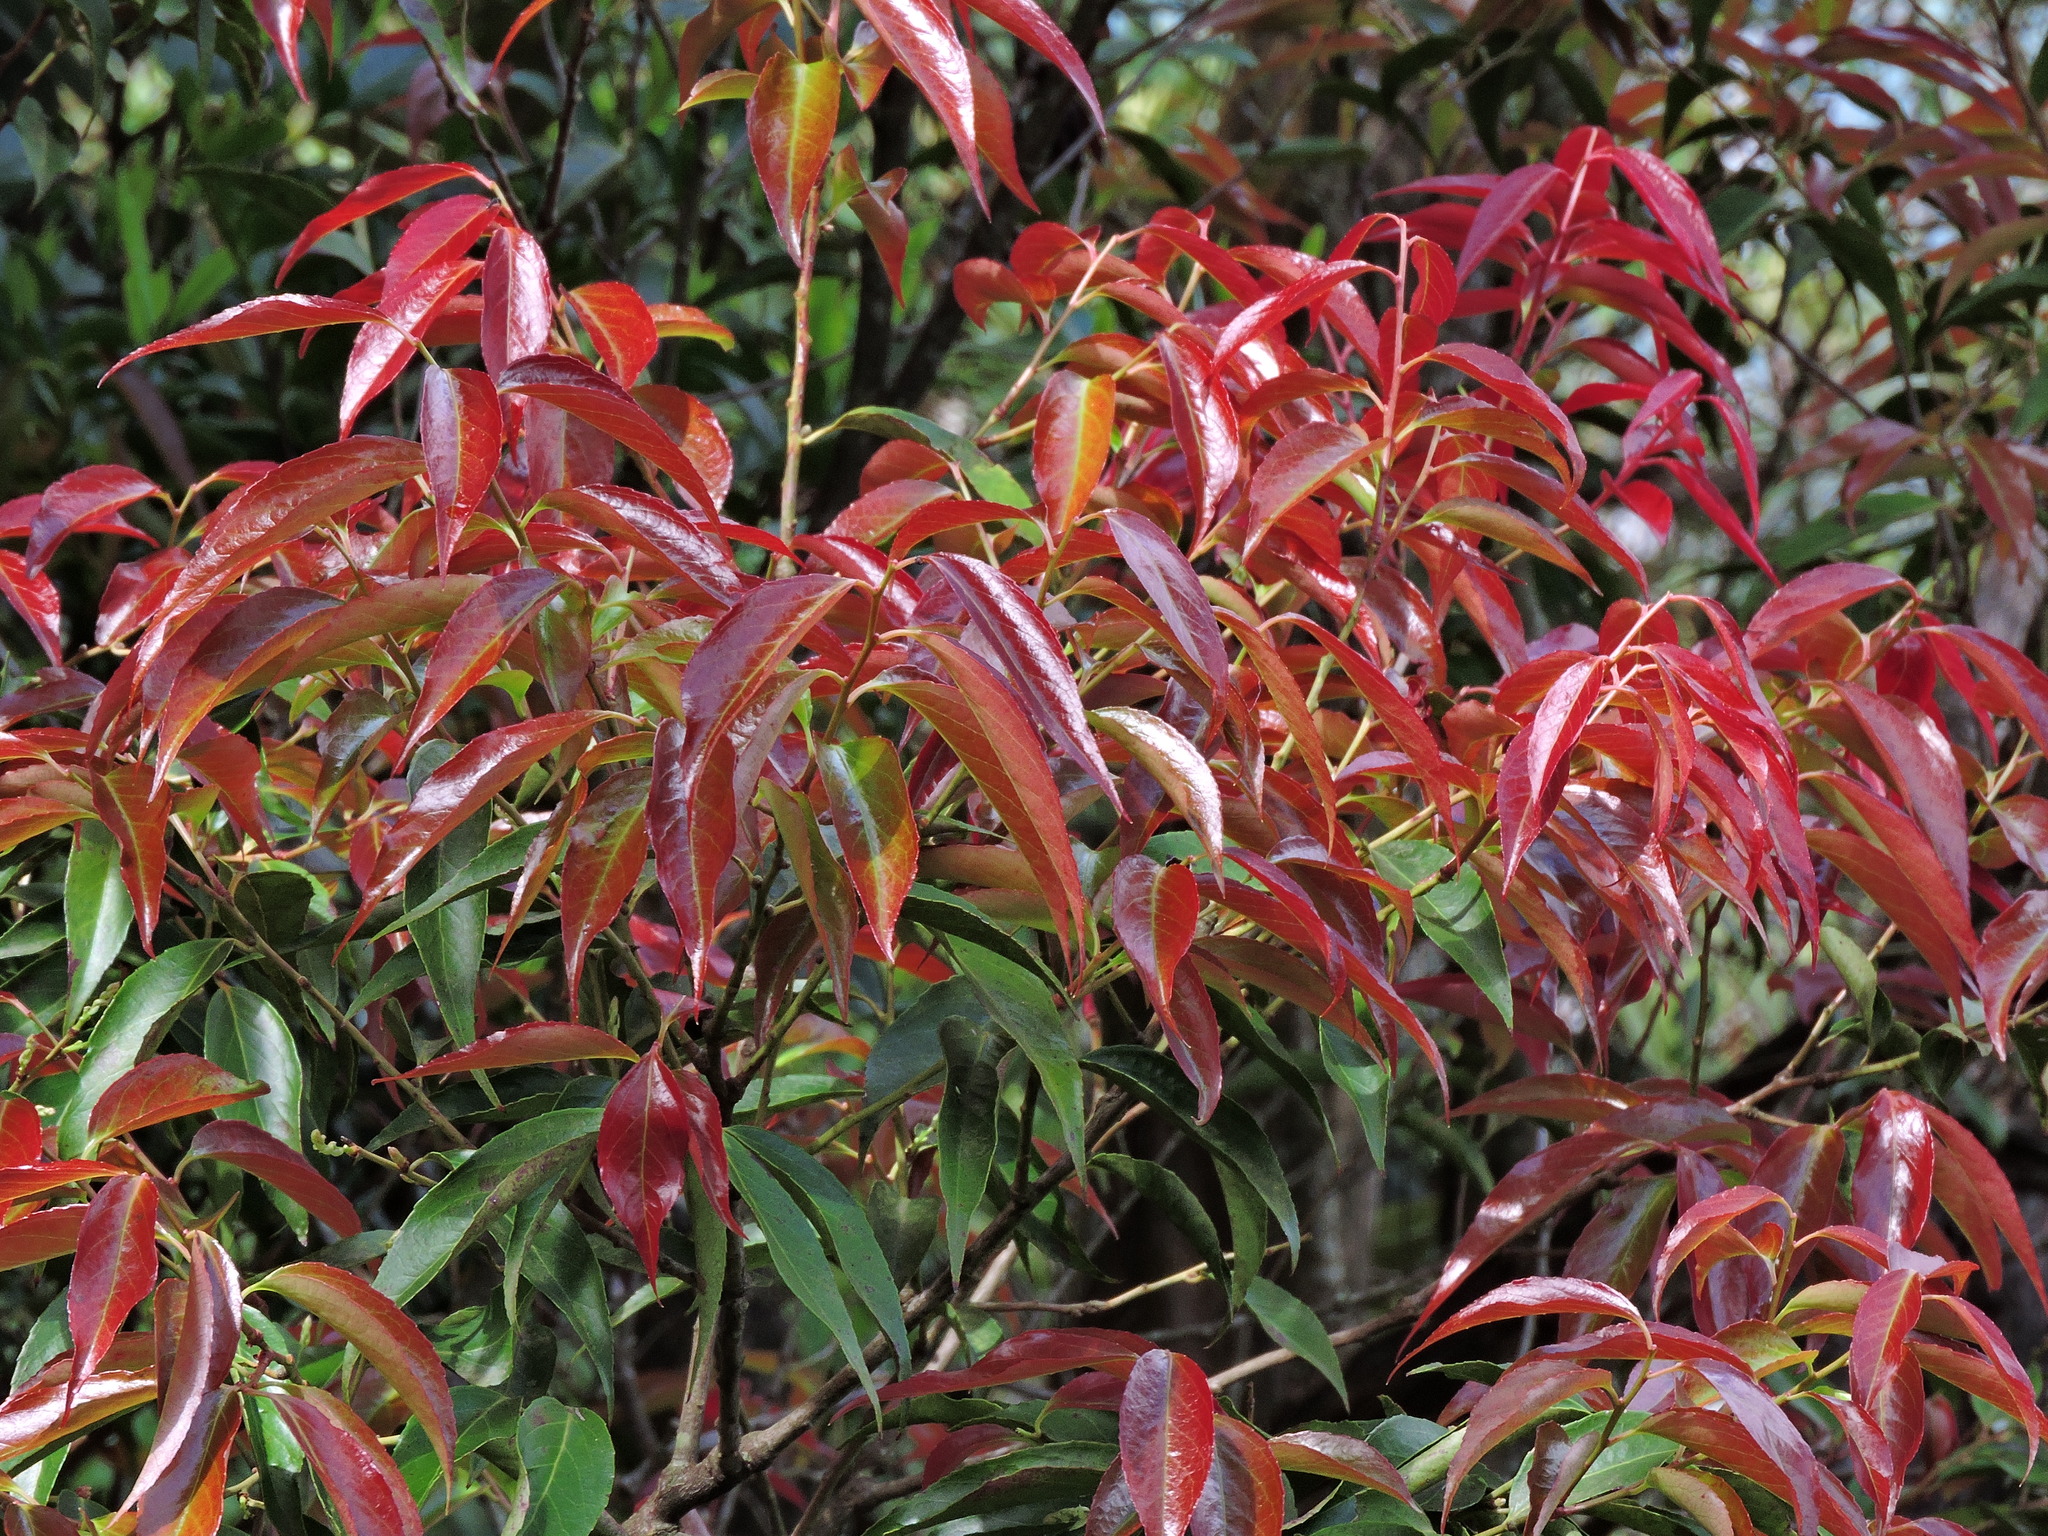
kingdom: Plantae
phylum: Tracheophyta
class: Magnoliopsida
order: Ericales
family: Ericaceae
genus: Vaccinium
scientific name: Vaccinium randaiensis
